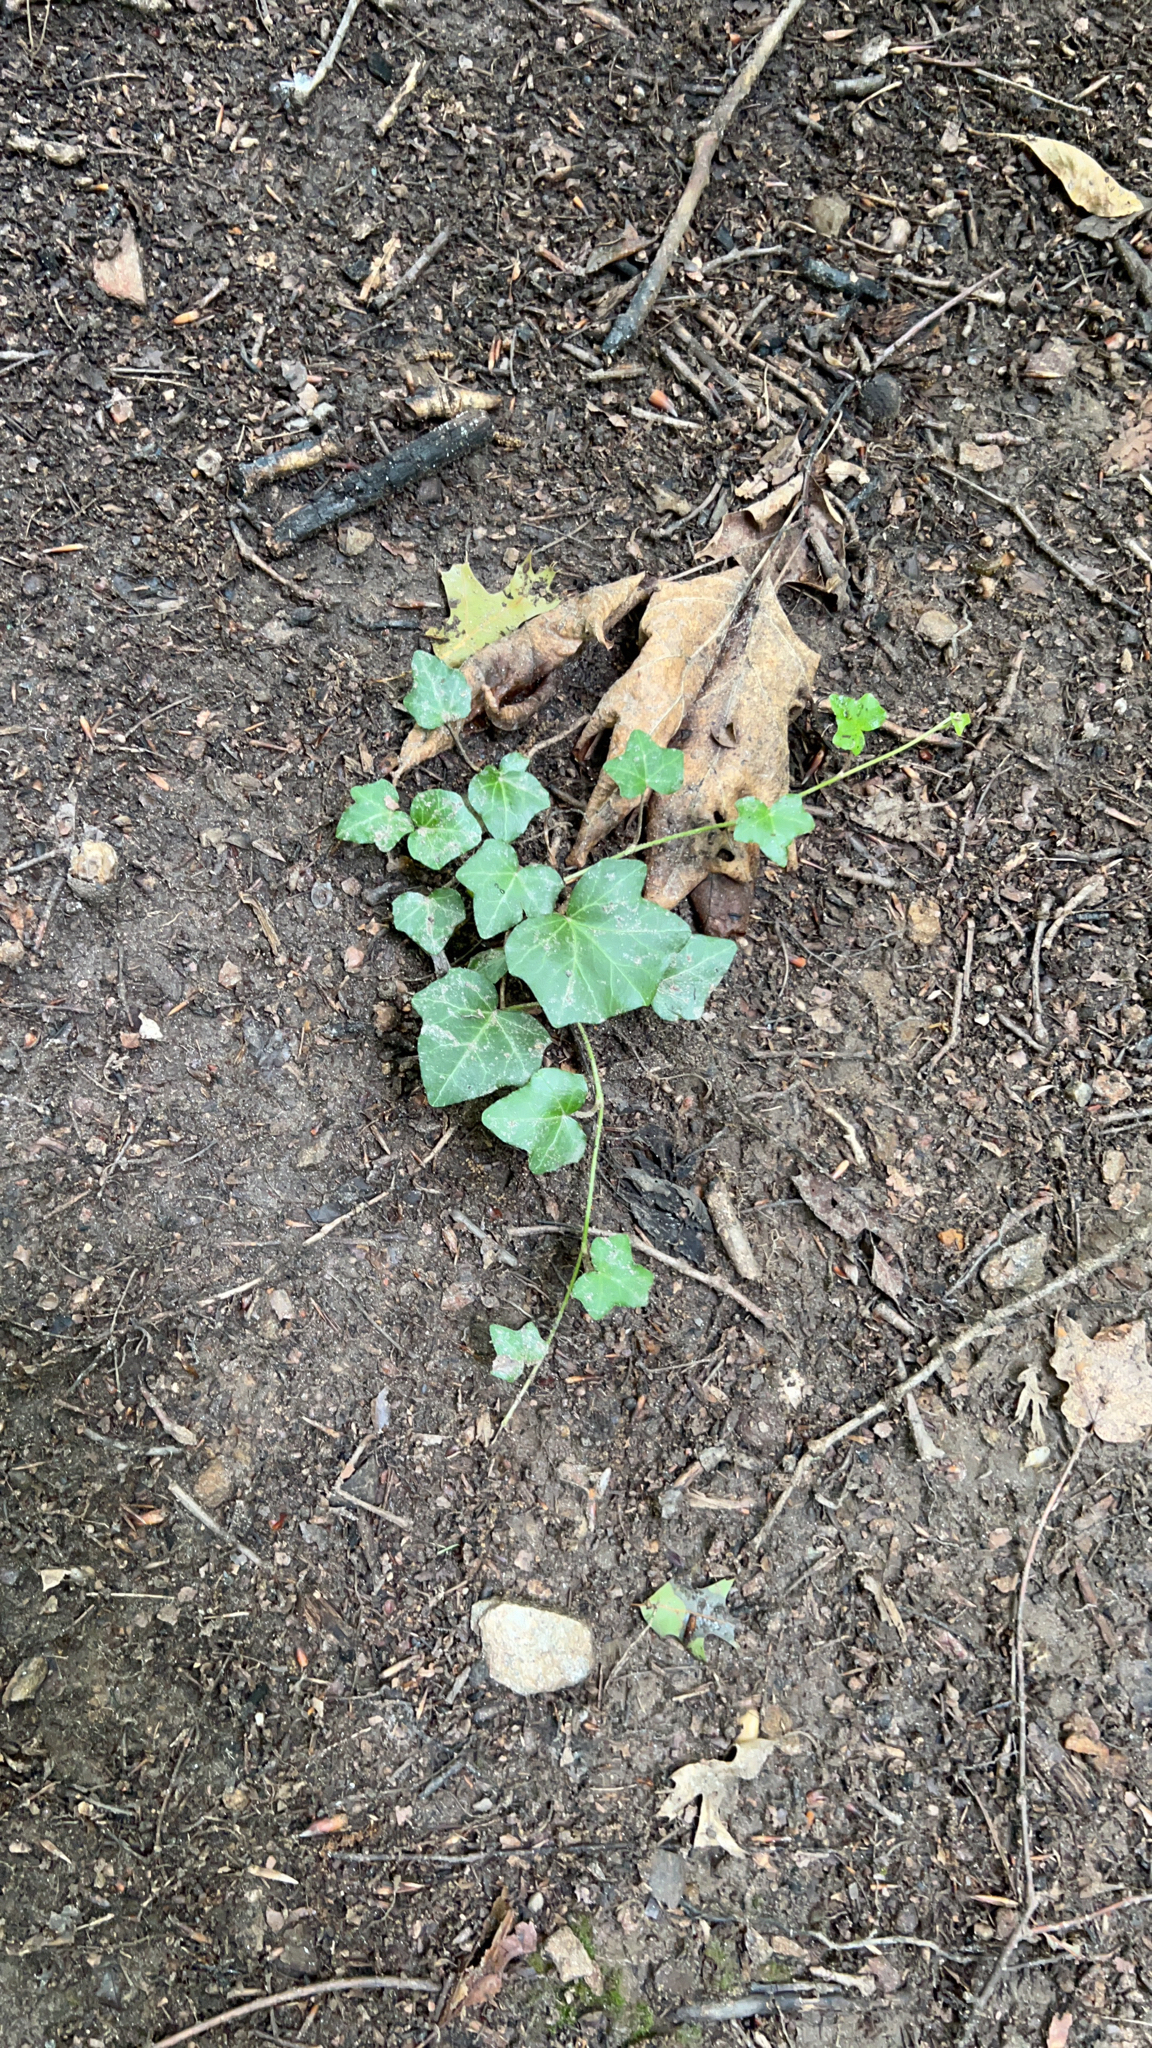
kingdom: Plantae
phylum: Tracheophyta
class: Magnoliopsida
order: Apiales
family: Araliaceae
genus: Hedera
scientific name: Hedera helix
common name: Ivy
